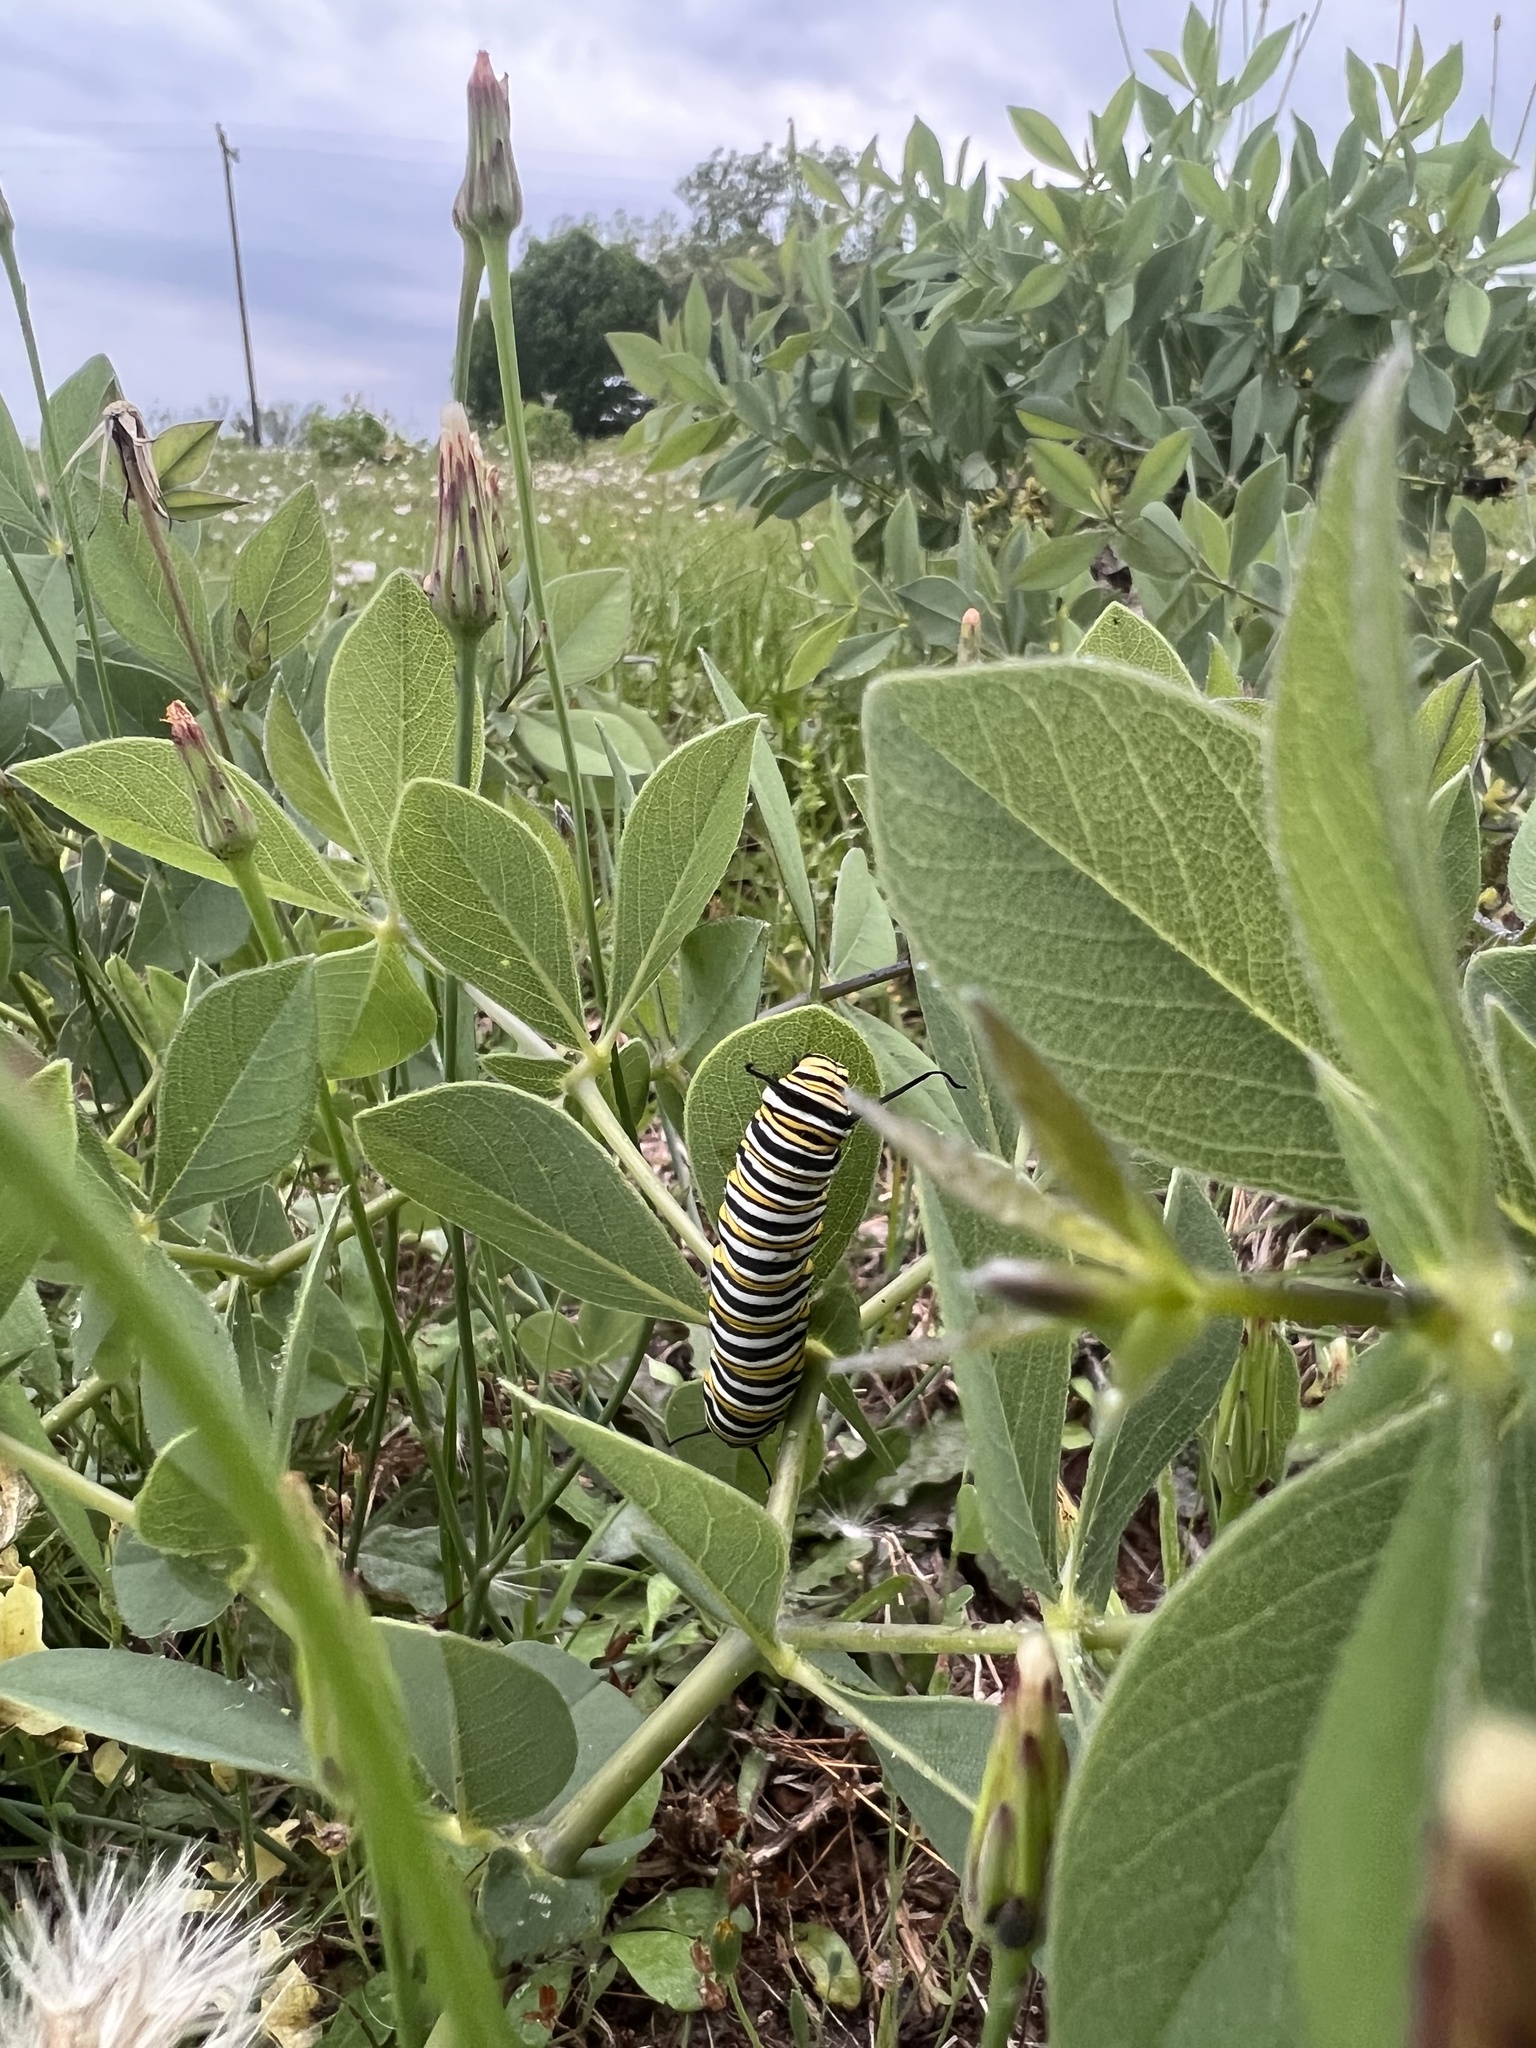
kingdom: Animalia
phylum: Arthropoda
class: Insecta
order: Lepidoptera
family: Nymphalidae
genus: Danaus
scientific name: Danaus plexippus
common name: Monarch
